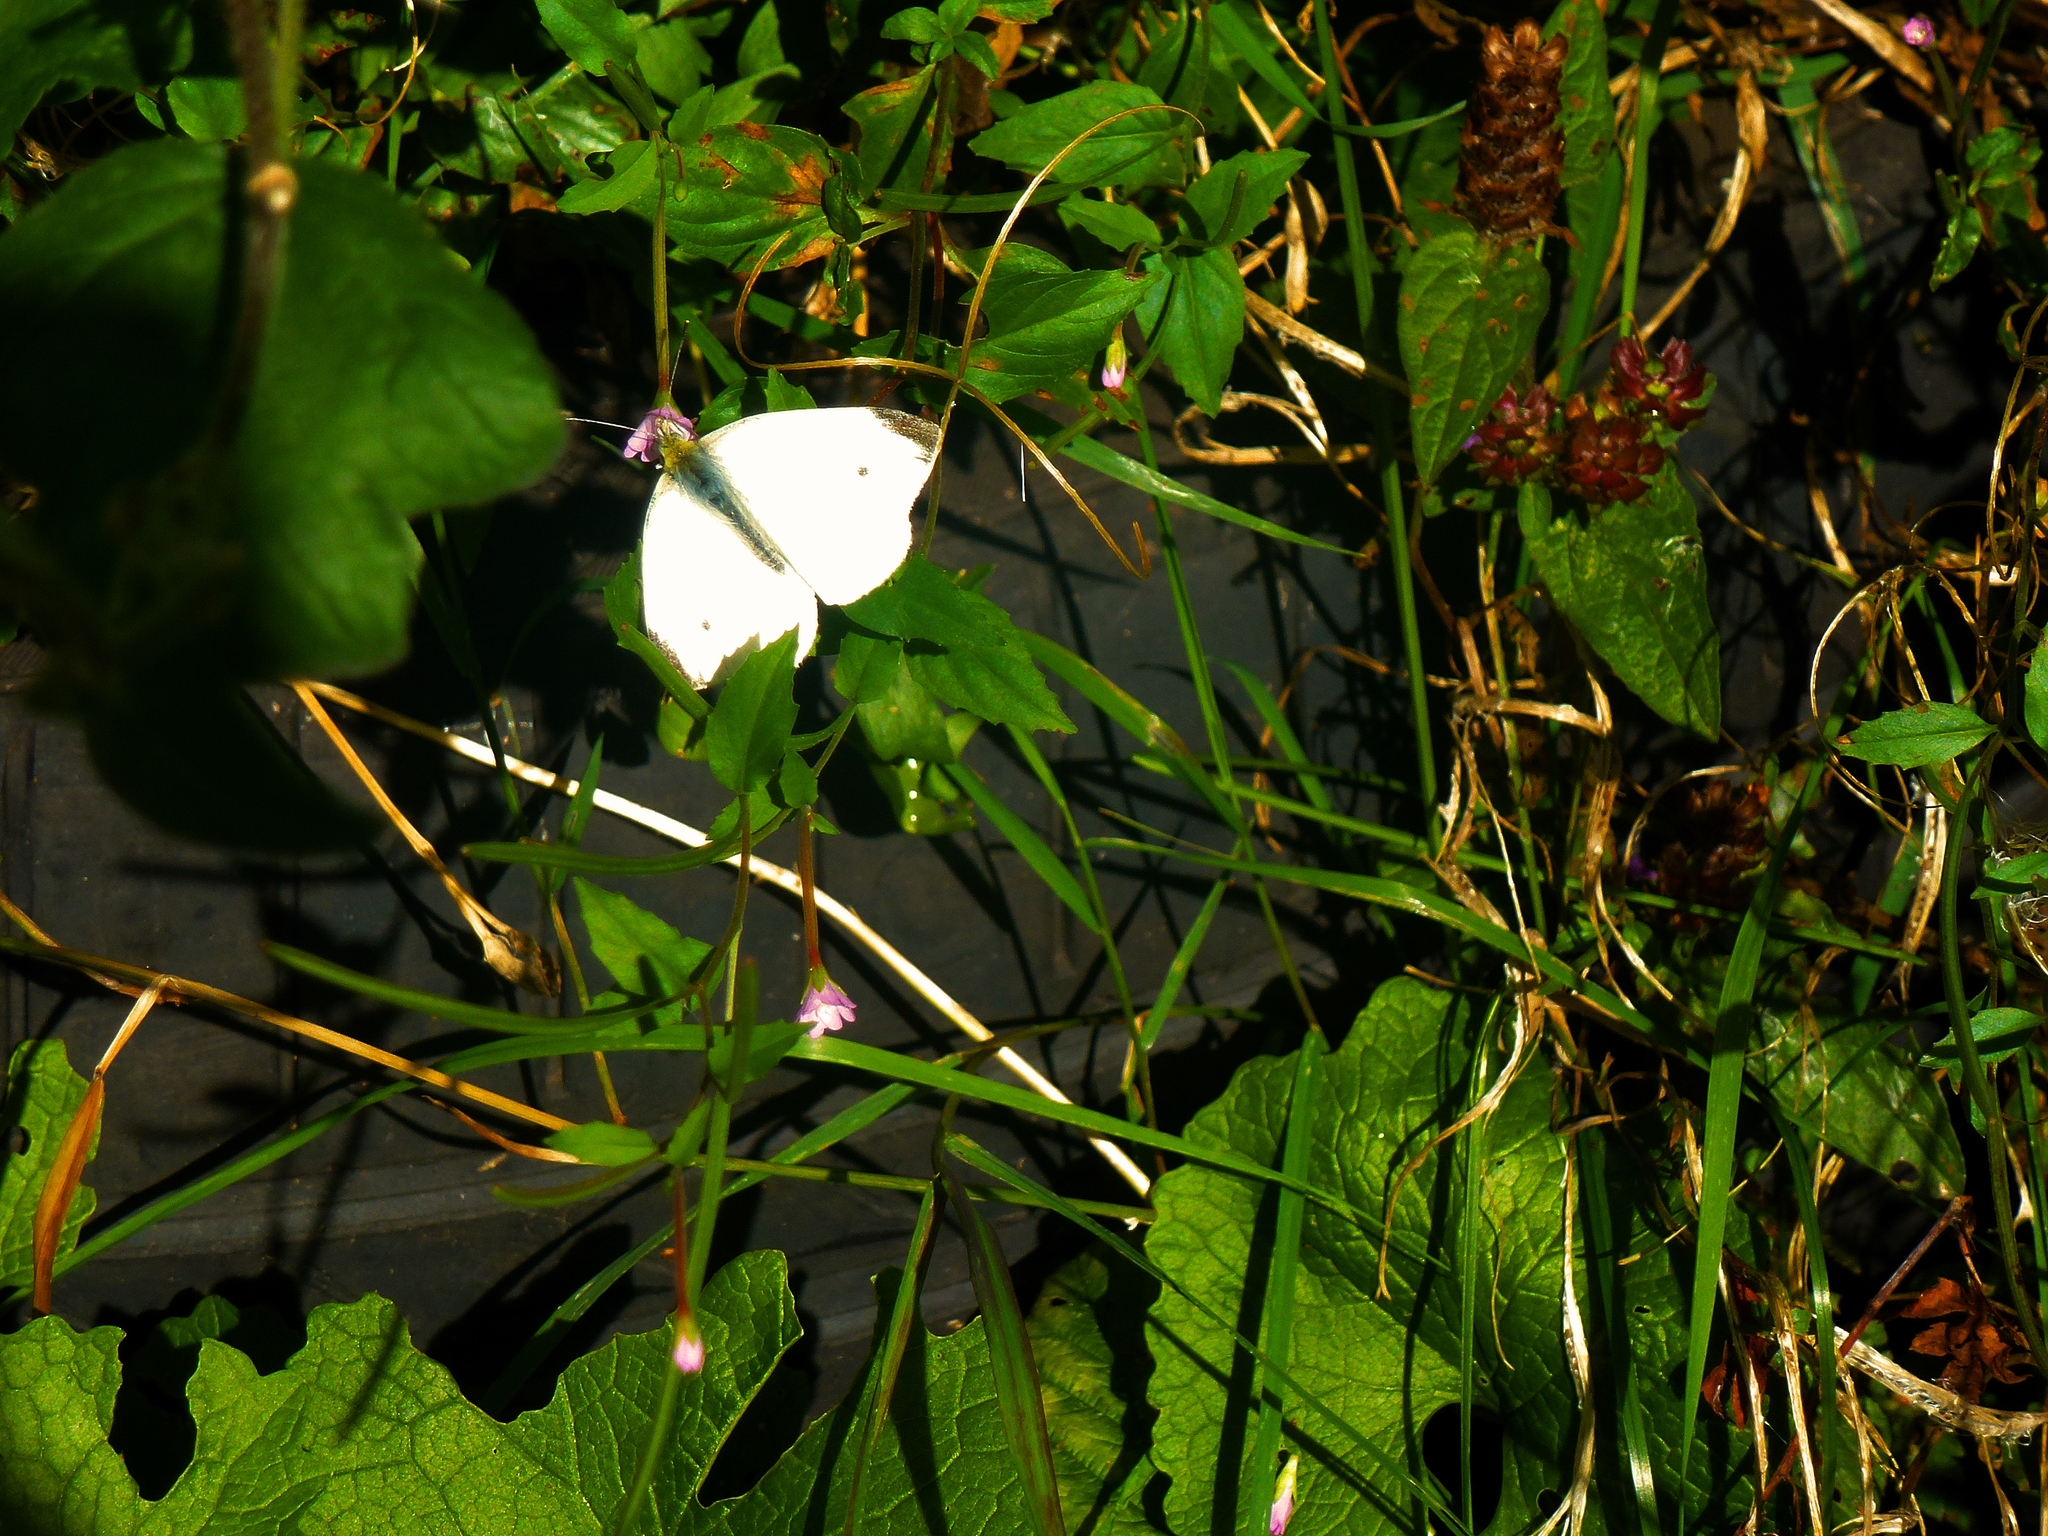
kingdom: Animalia
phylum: Arthropoda
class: Insecta
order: Lepidoptera
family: Pieridae
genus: Pieris
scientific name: Pieris rapae
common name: Small white
